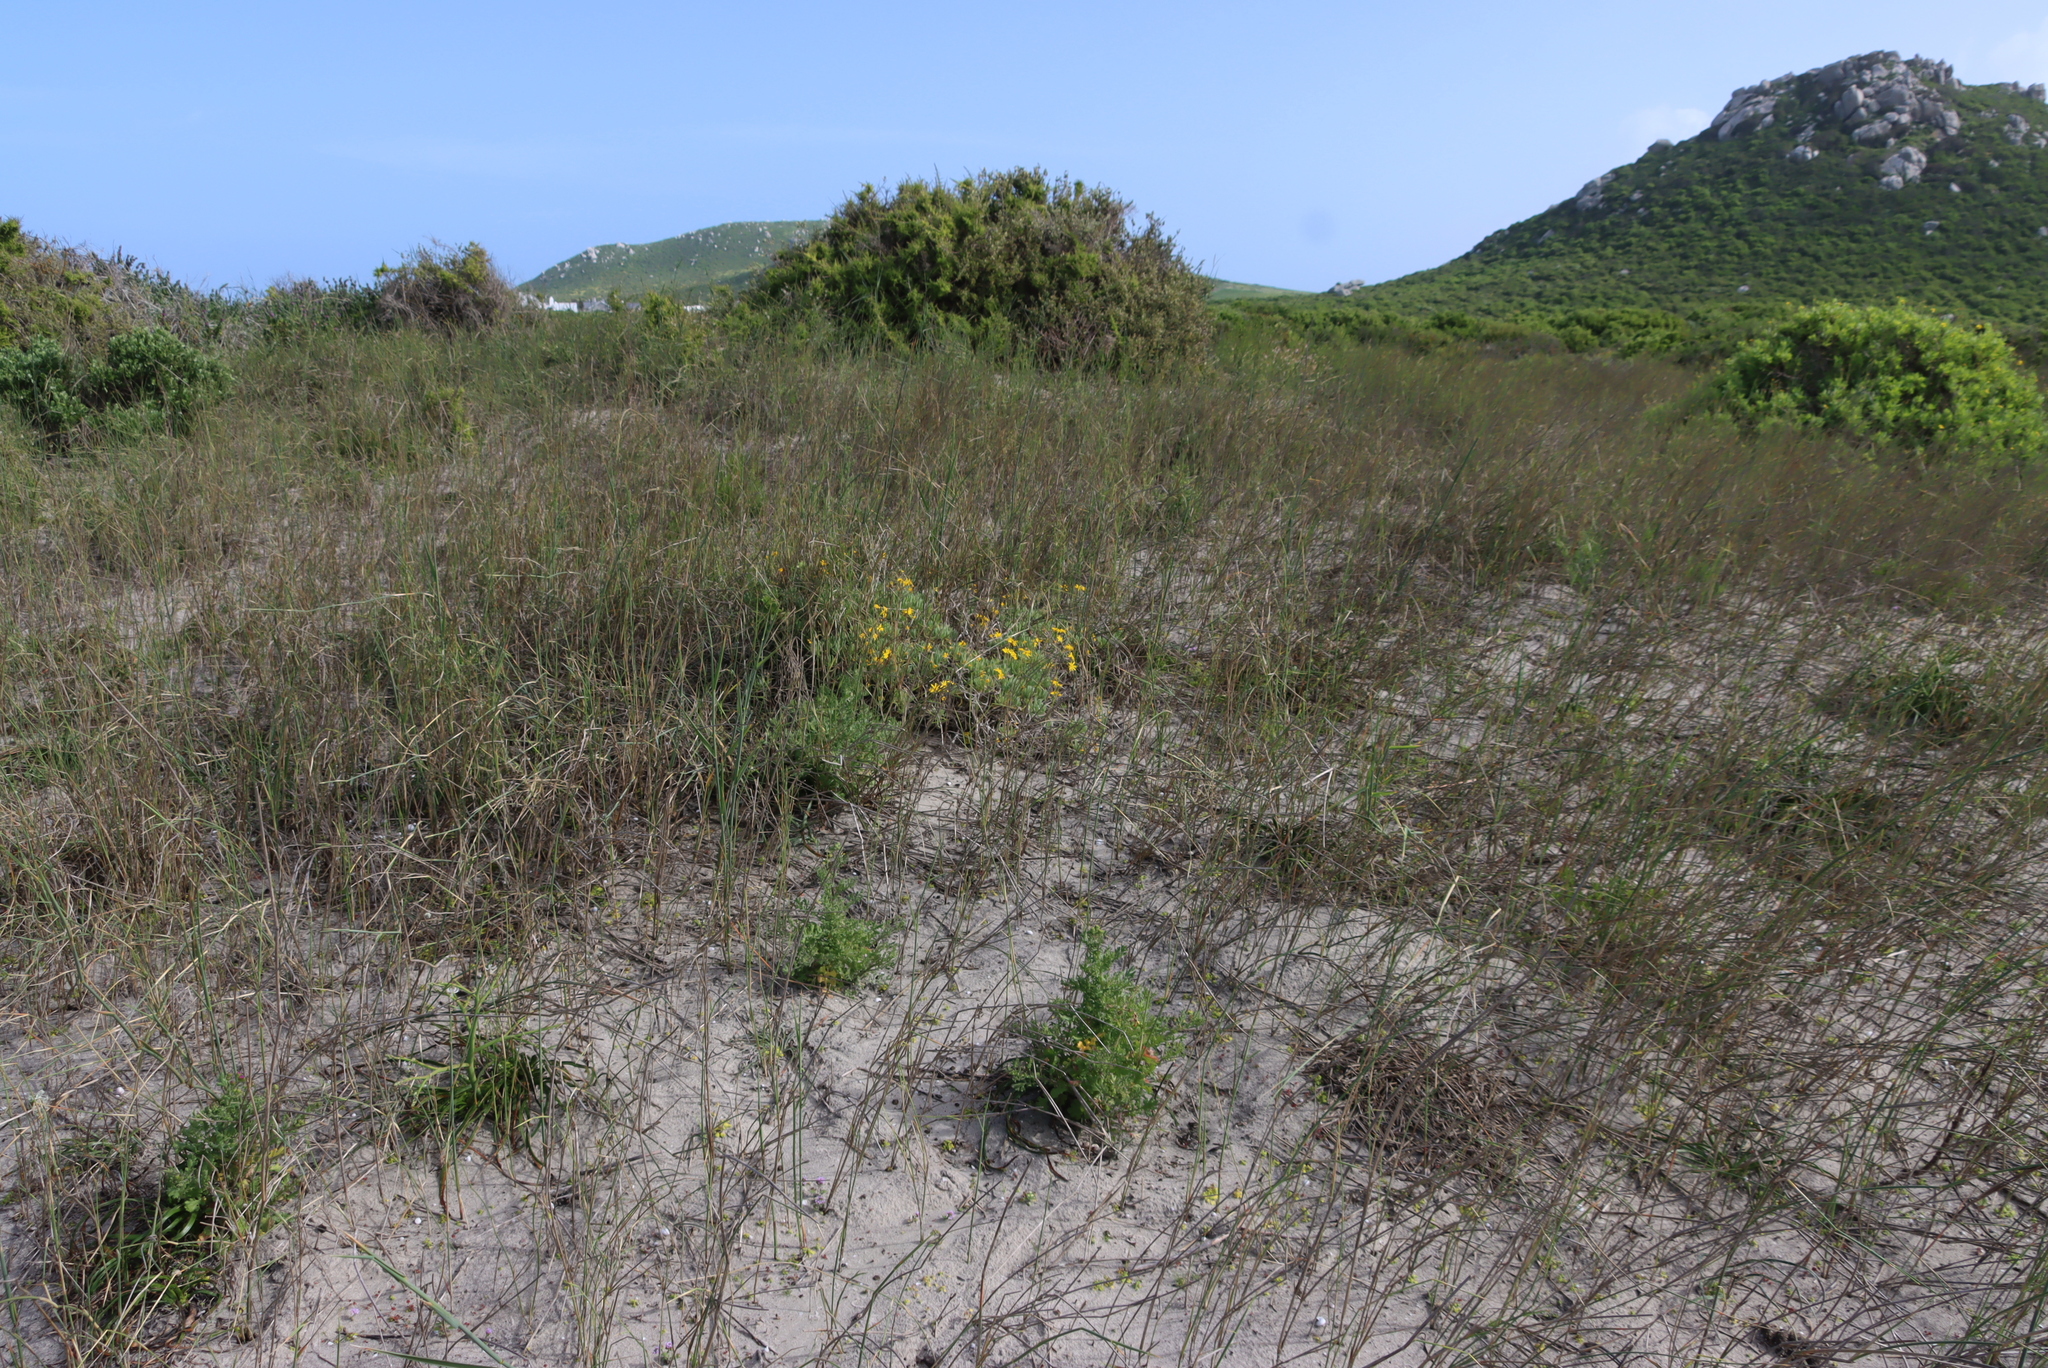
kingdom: Plantae
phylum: Tracheophyta
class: Magnoliopsida
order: Asterales
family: Asteraceae
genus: Crassothonna
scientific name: Crassothonna cylindrica
